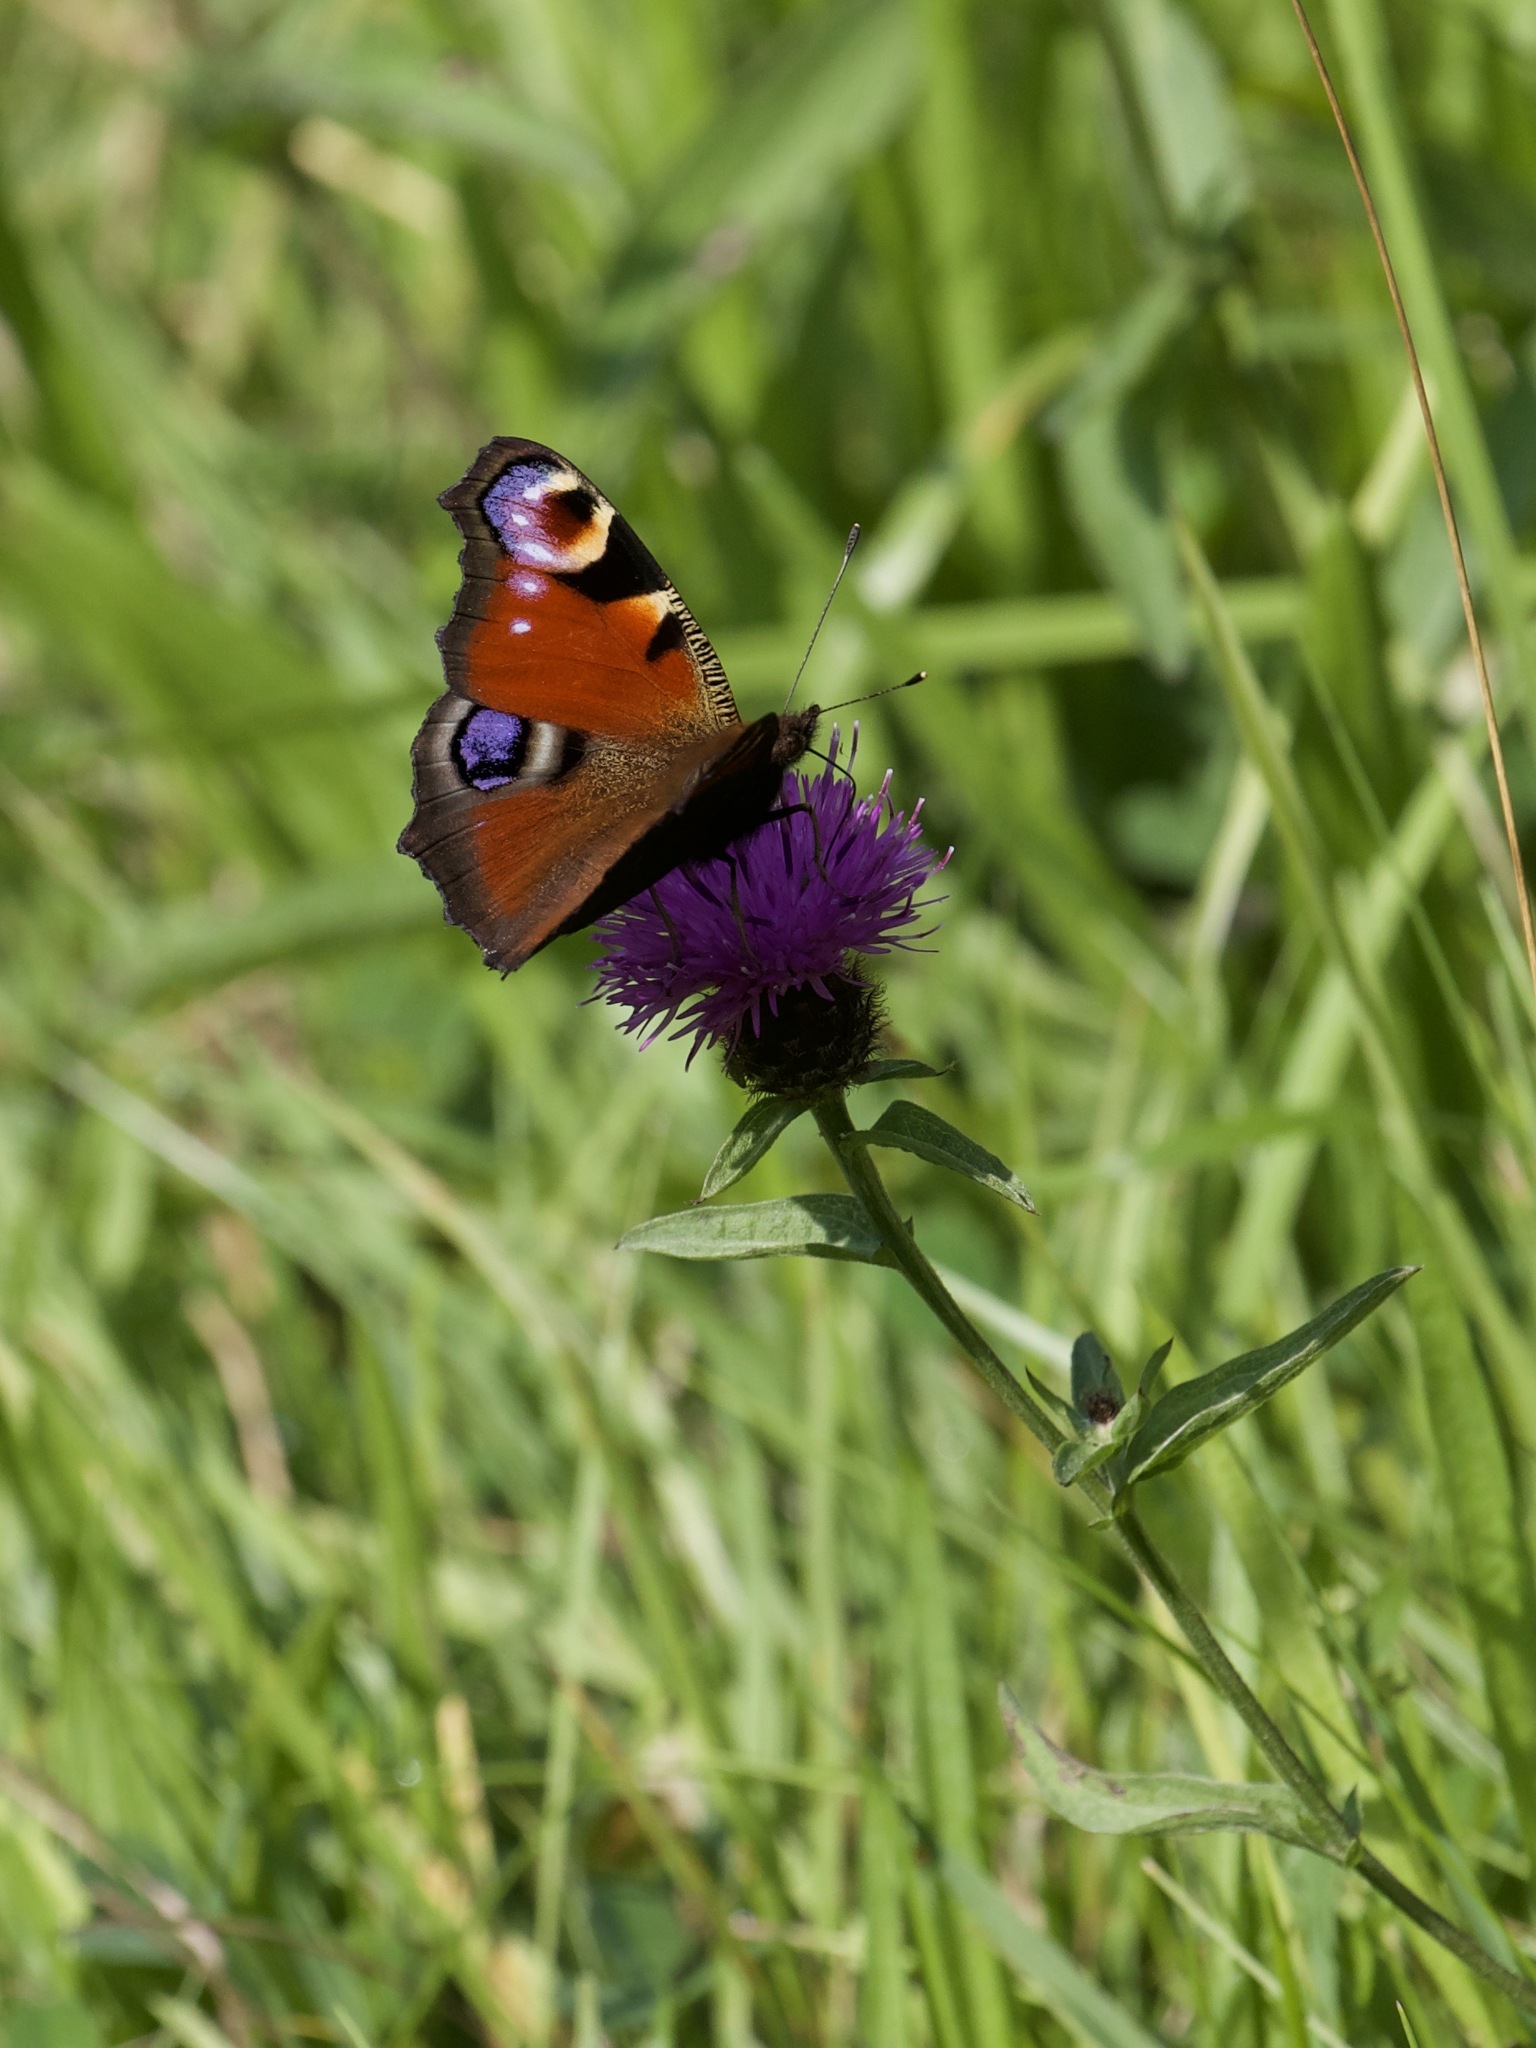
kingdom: Animalia
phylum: Arthropoda
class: Insecta
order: Lepidoptera
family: Nymphalidae
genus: Aglais
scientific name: Aglais io
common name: Peacock
